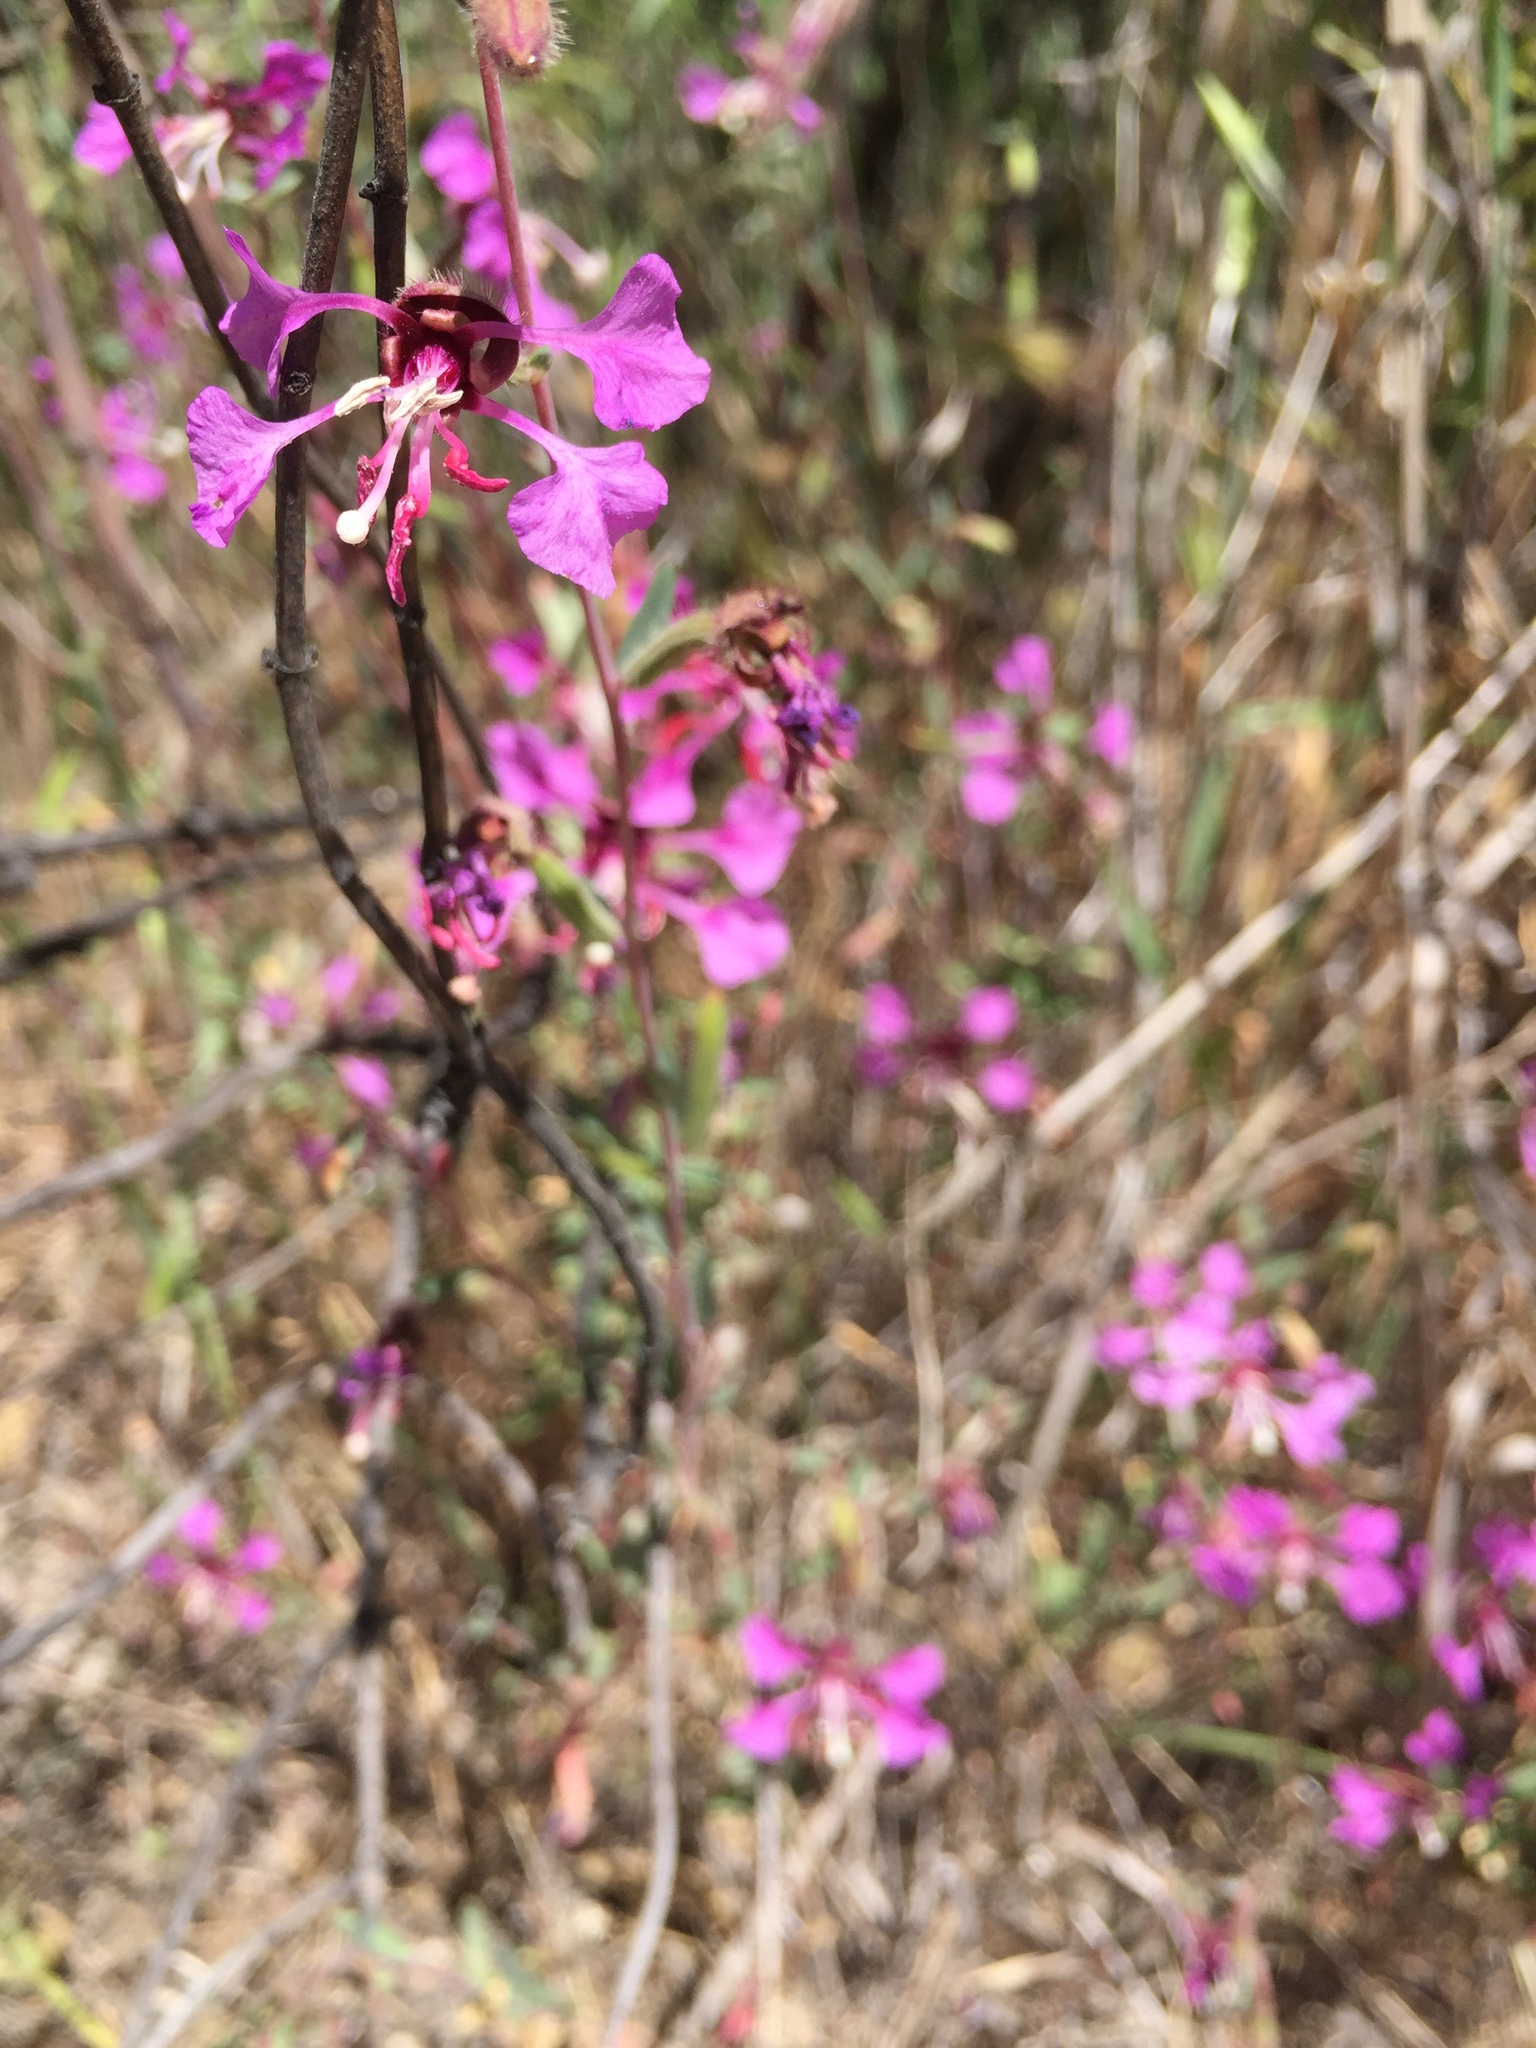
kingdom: Plantae
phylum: Tracheophyta
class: Magnoliopsida
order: Myrtales
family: Onagraceae
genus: Clarkia
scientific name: Clarkia unguiculata
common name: Clarkia
